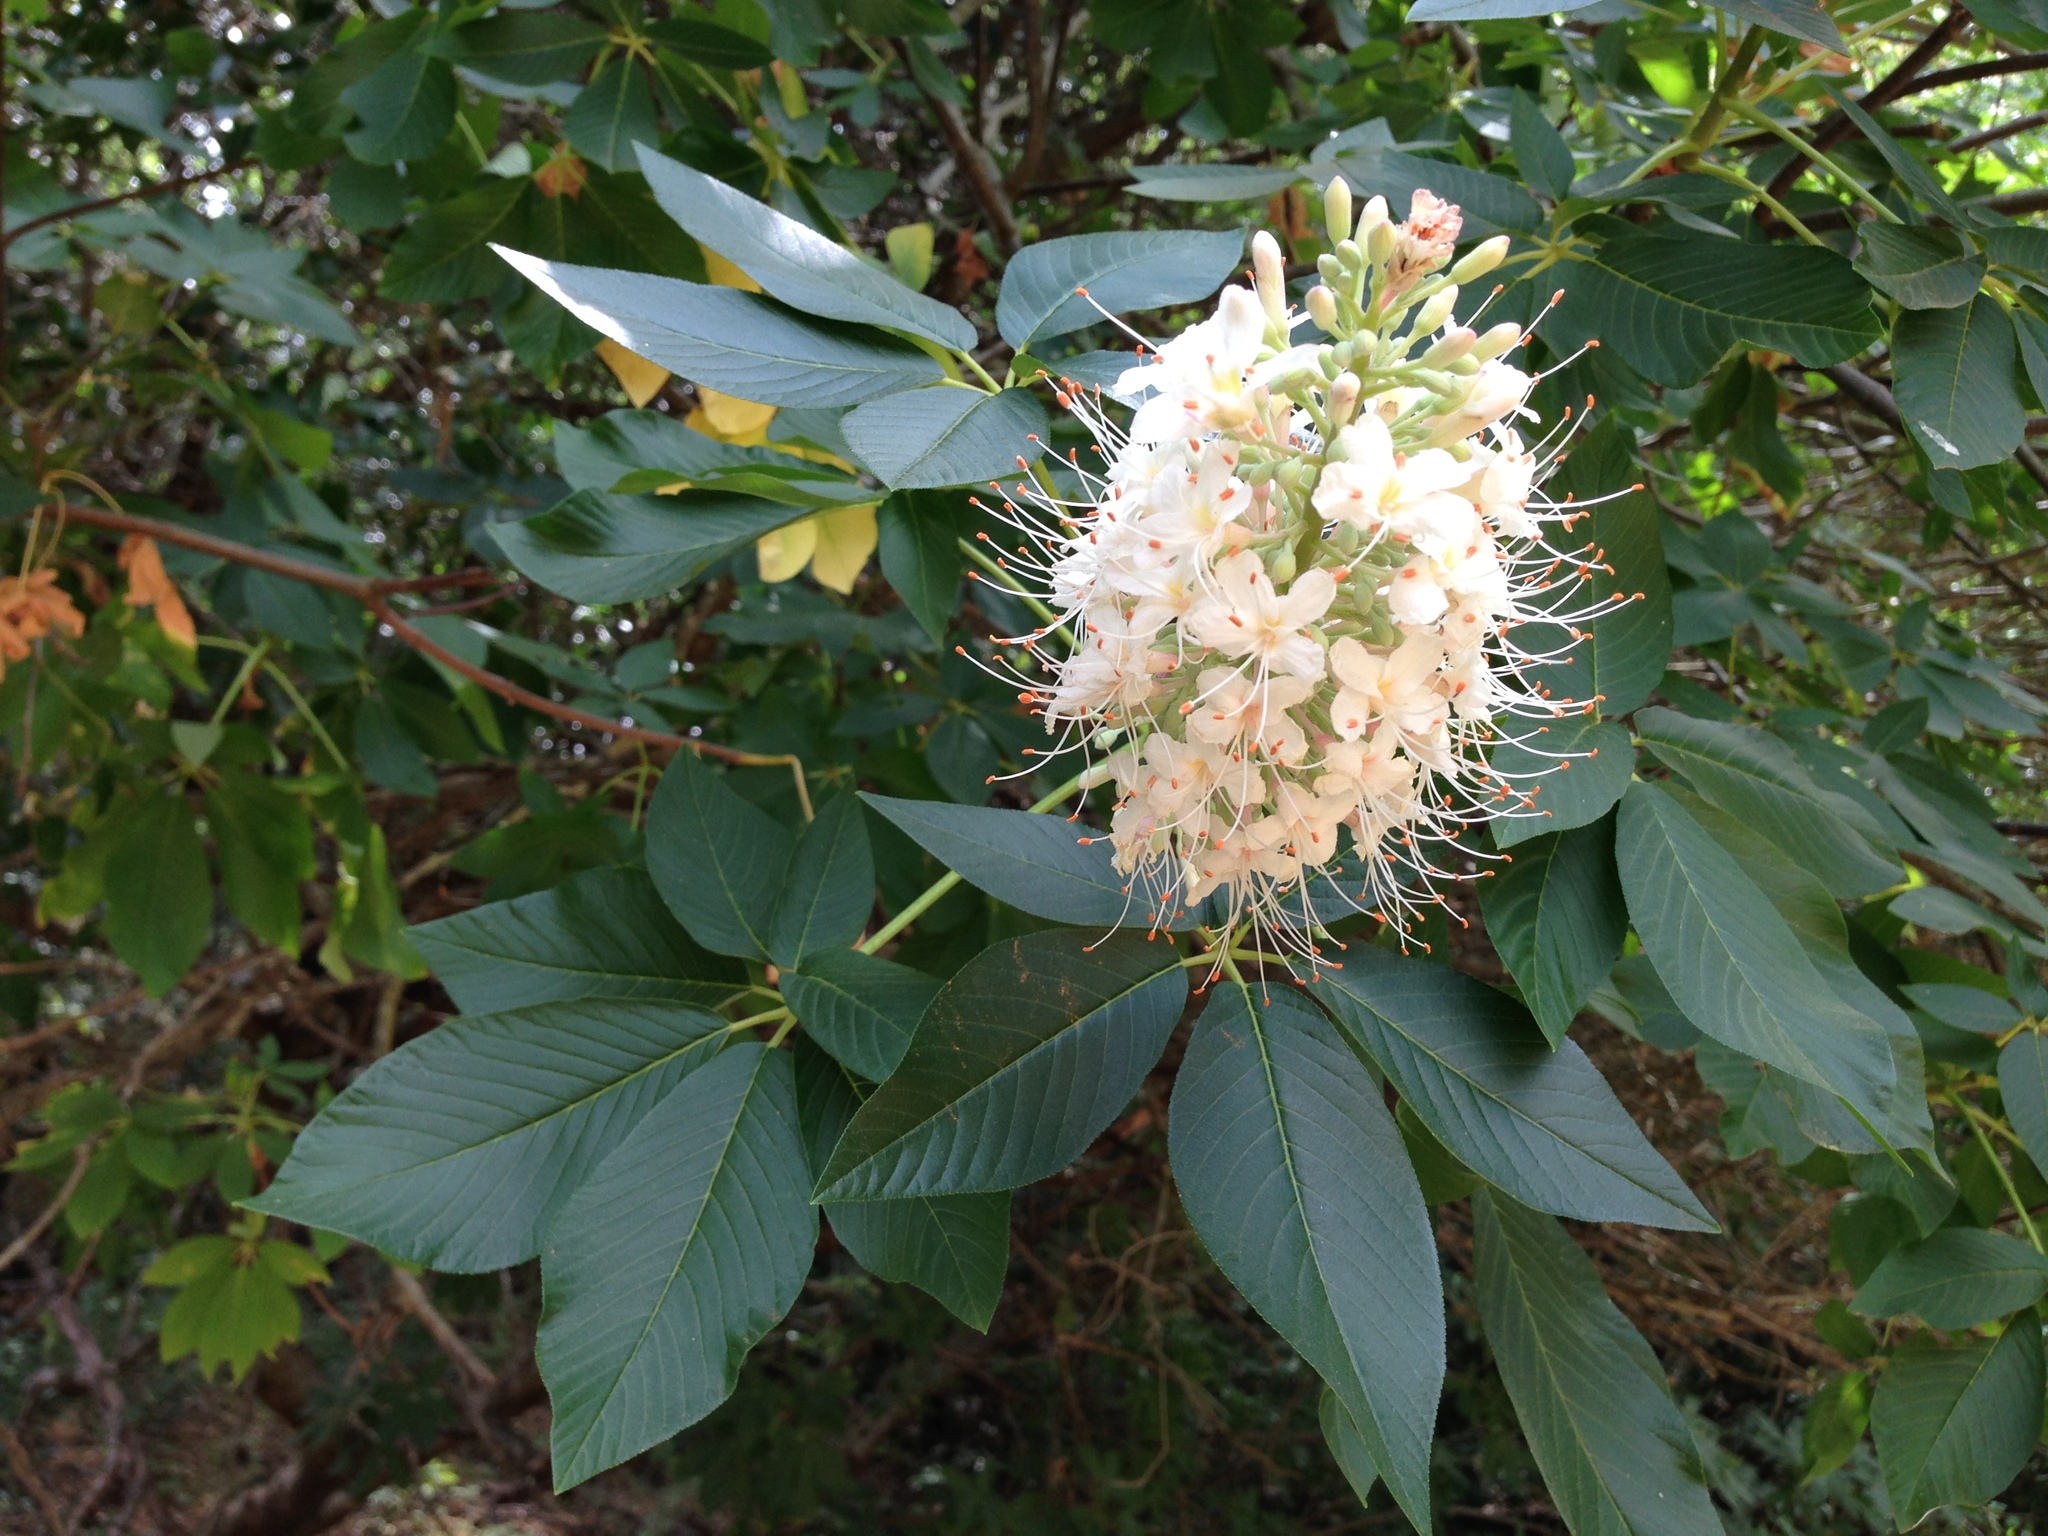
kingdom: Plantae
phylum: Tracheophyta
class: Magnoliopsida
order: Sapindales
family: Sapindaceae
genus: Aesculus
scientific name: Aesculus californica
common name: California buckeye
